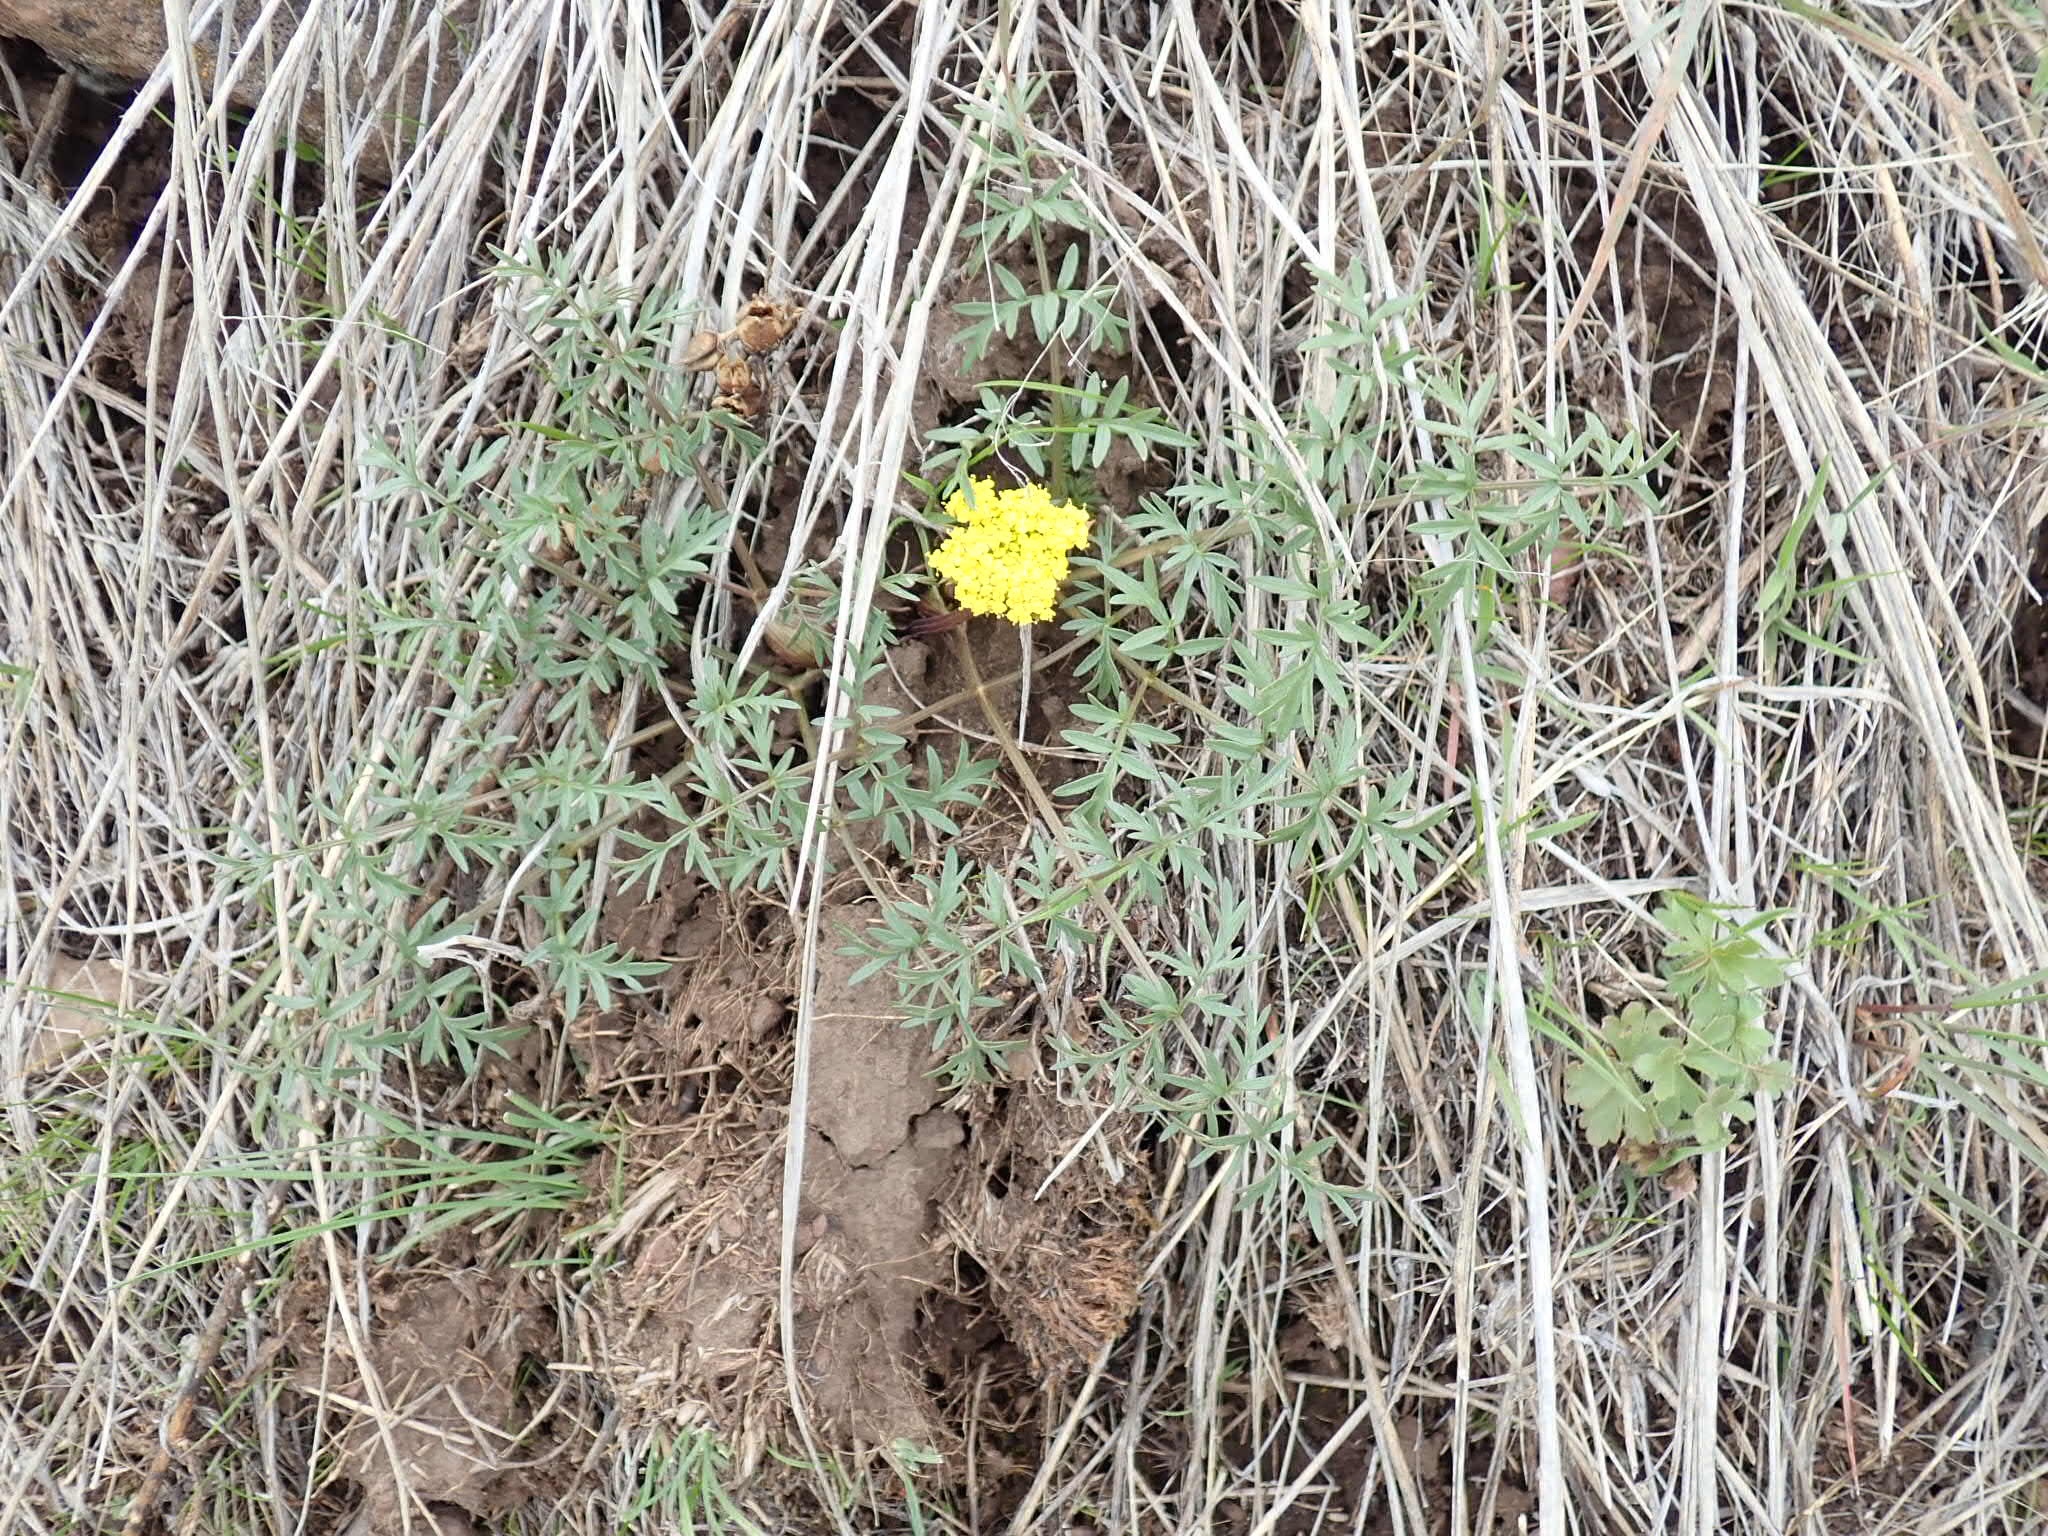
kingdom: Plantae
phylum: Tracheophyta
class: Magnoliopsida
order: Apiales
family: Apiaceae
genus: Lomatium
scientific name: Lomatium cous
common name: Biscuit-root
